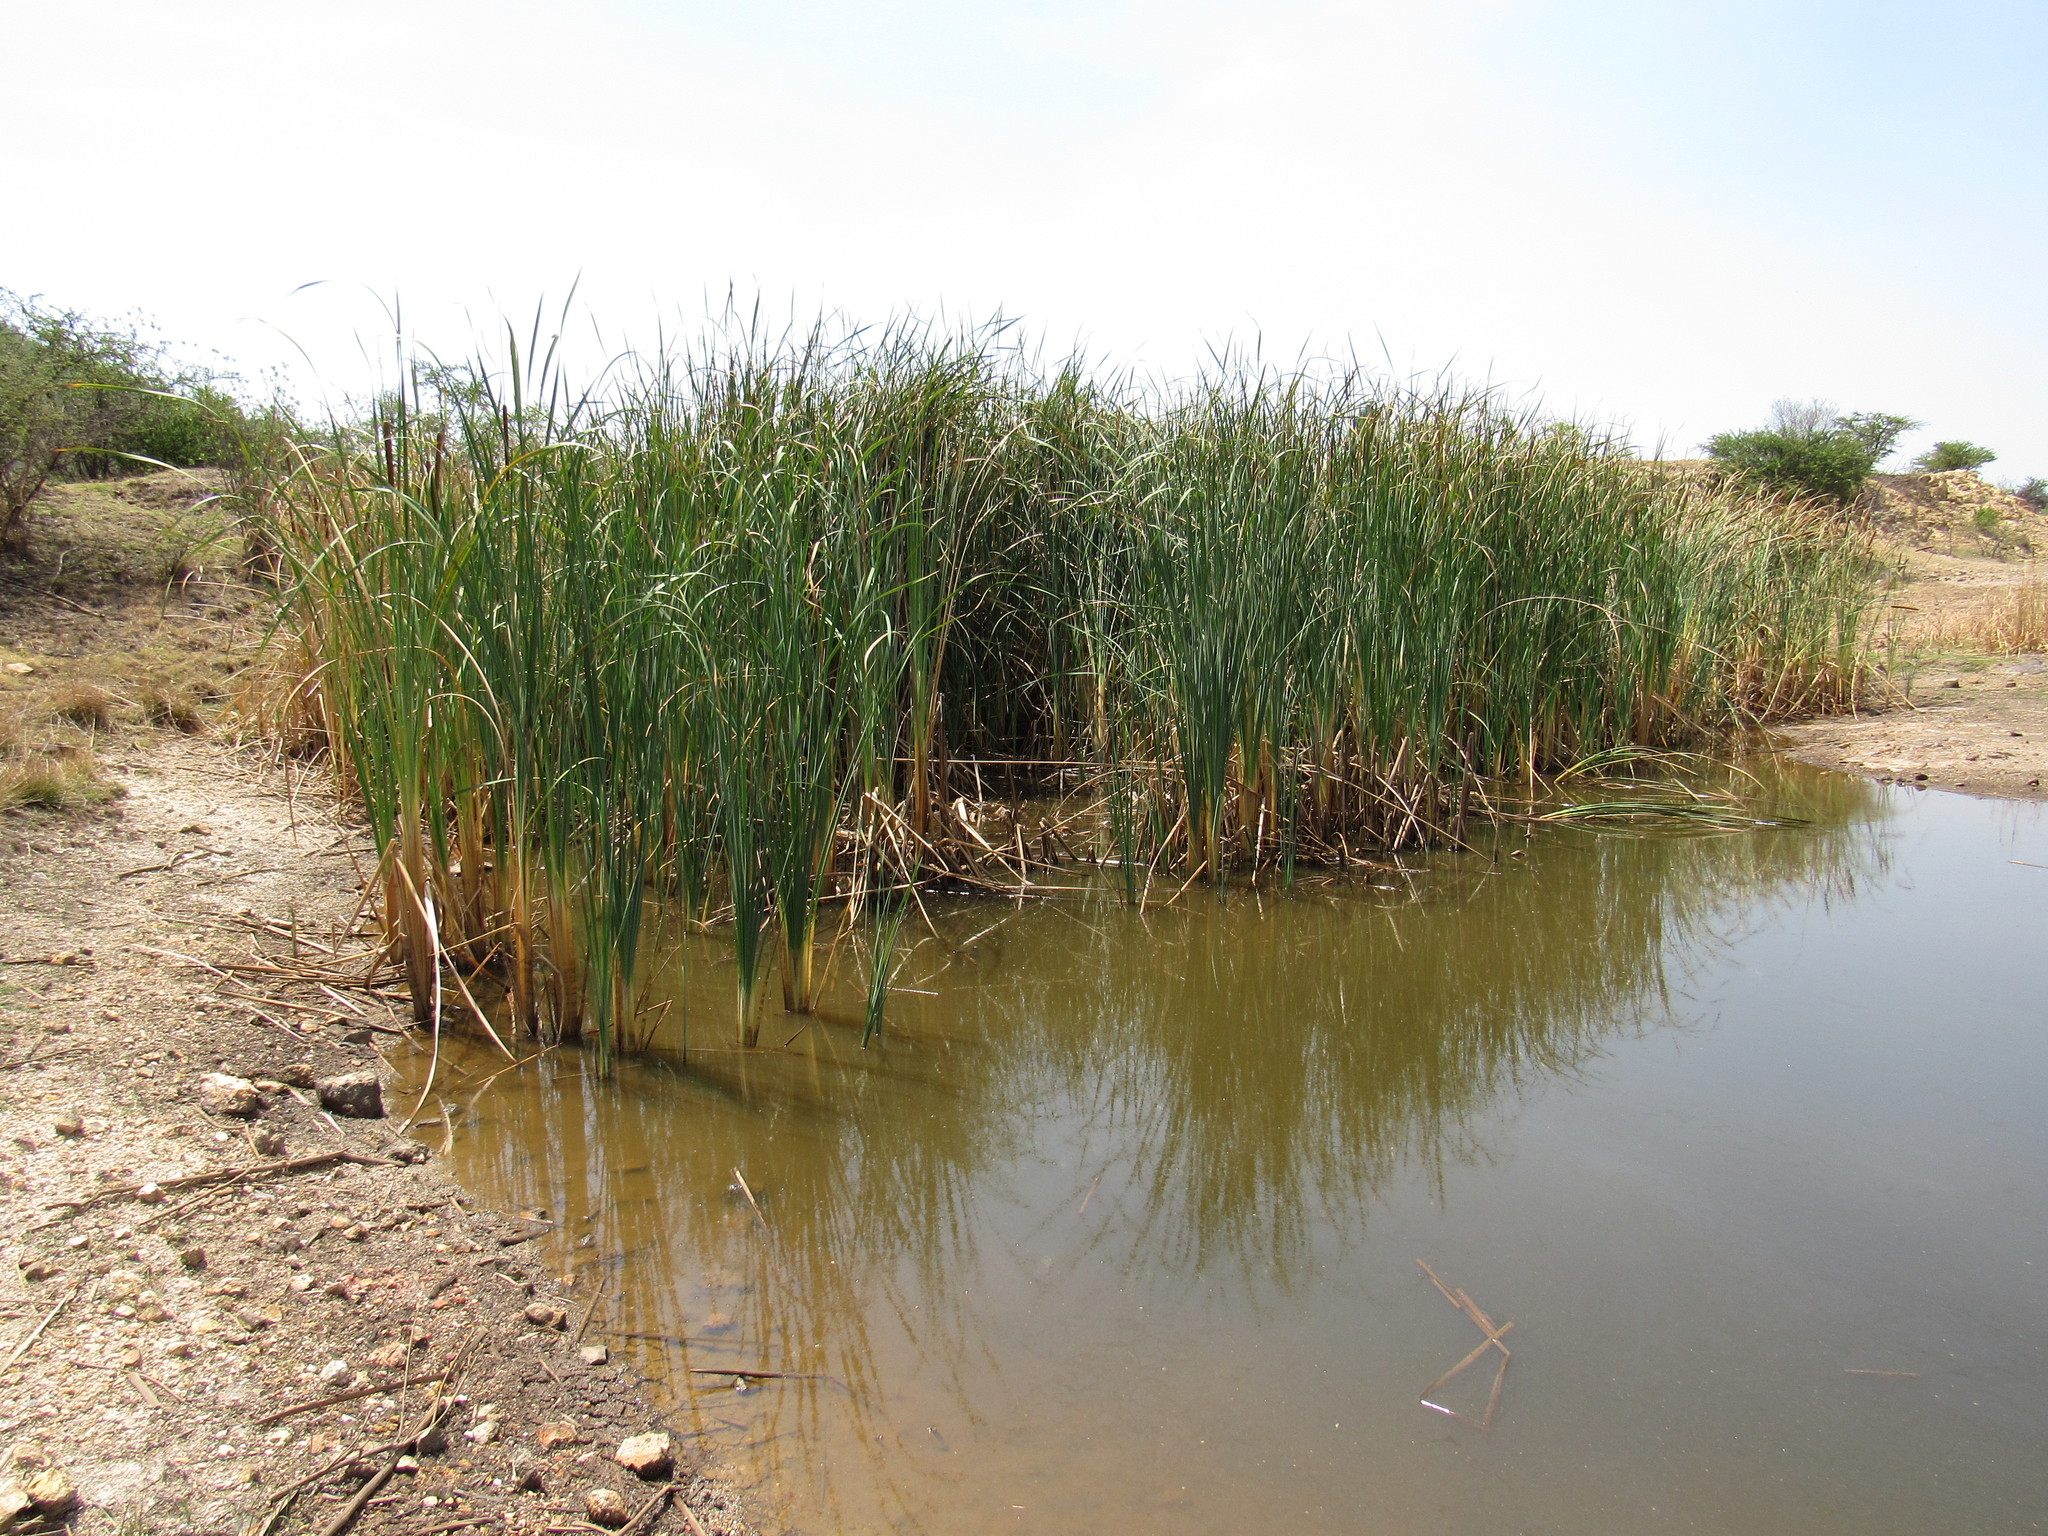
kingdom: Plantae
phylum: Tracheophyta
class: Liliopsida
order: Poales
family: Typhaceae
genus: Typha
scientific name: Typha domingensis
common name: Southern cattail
